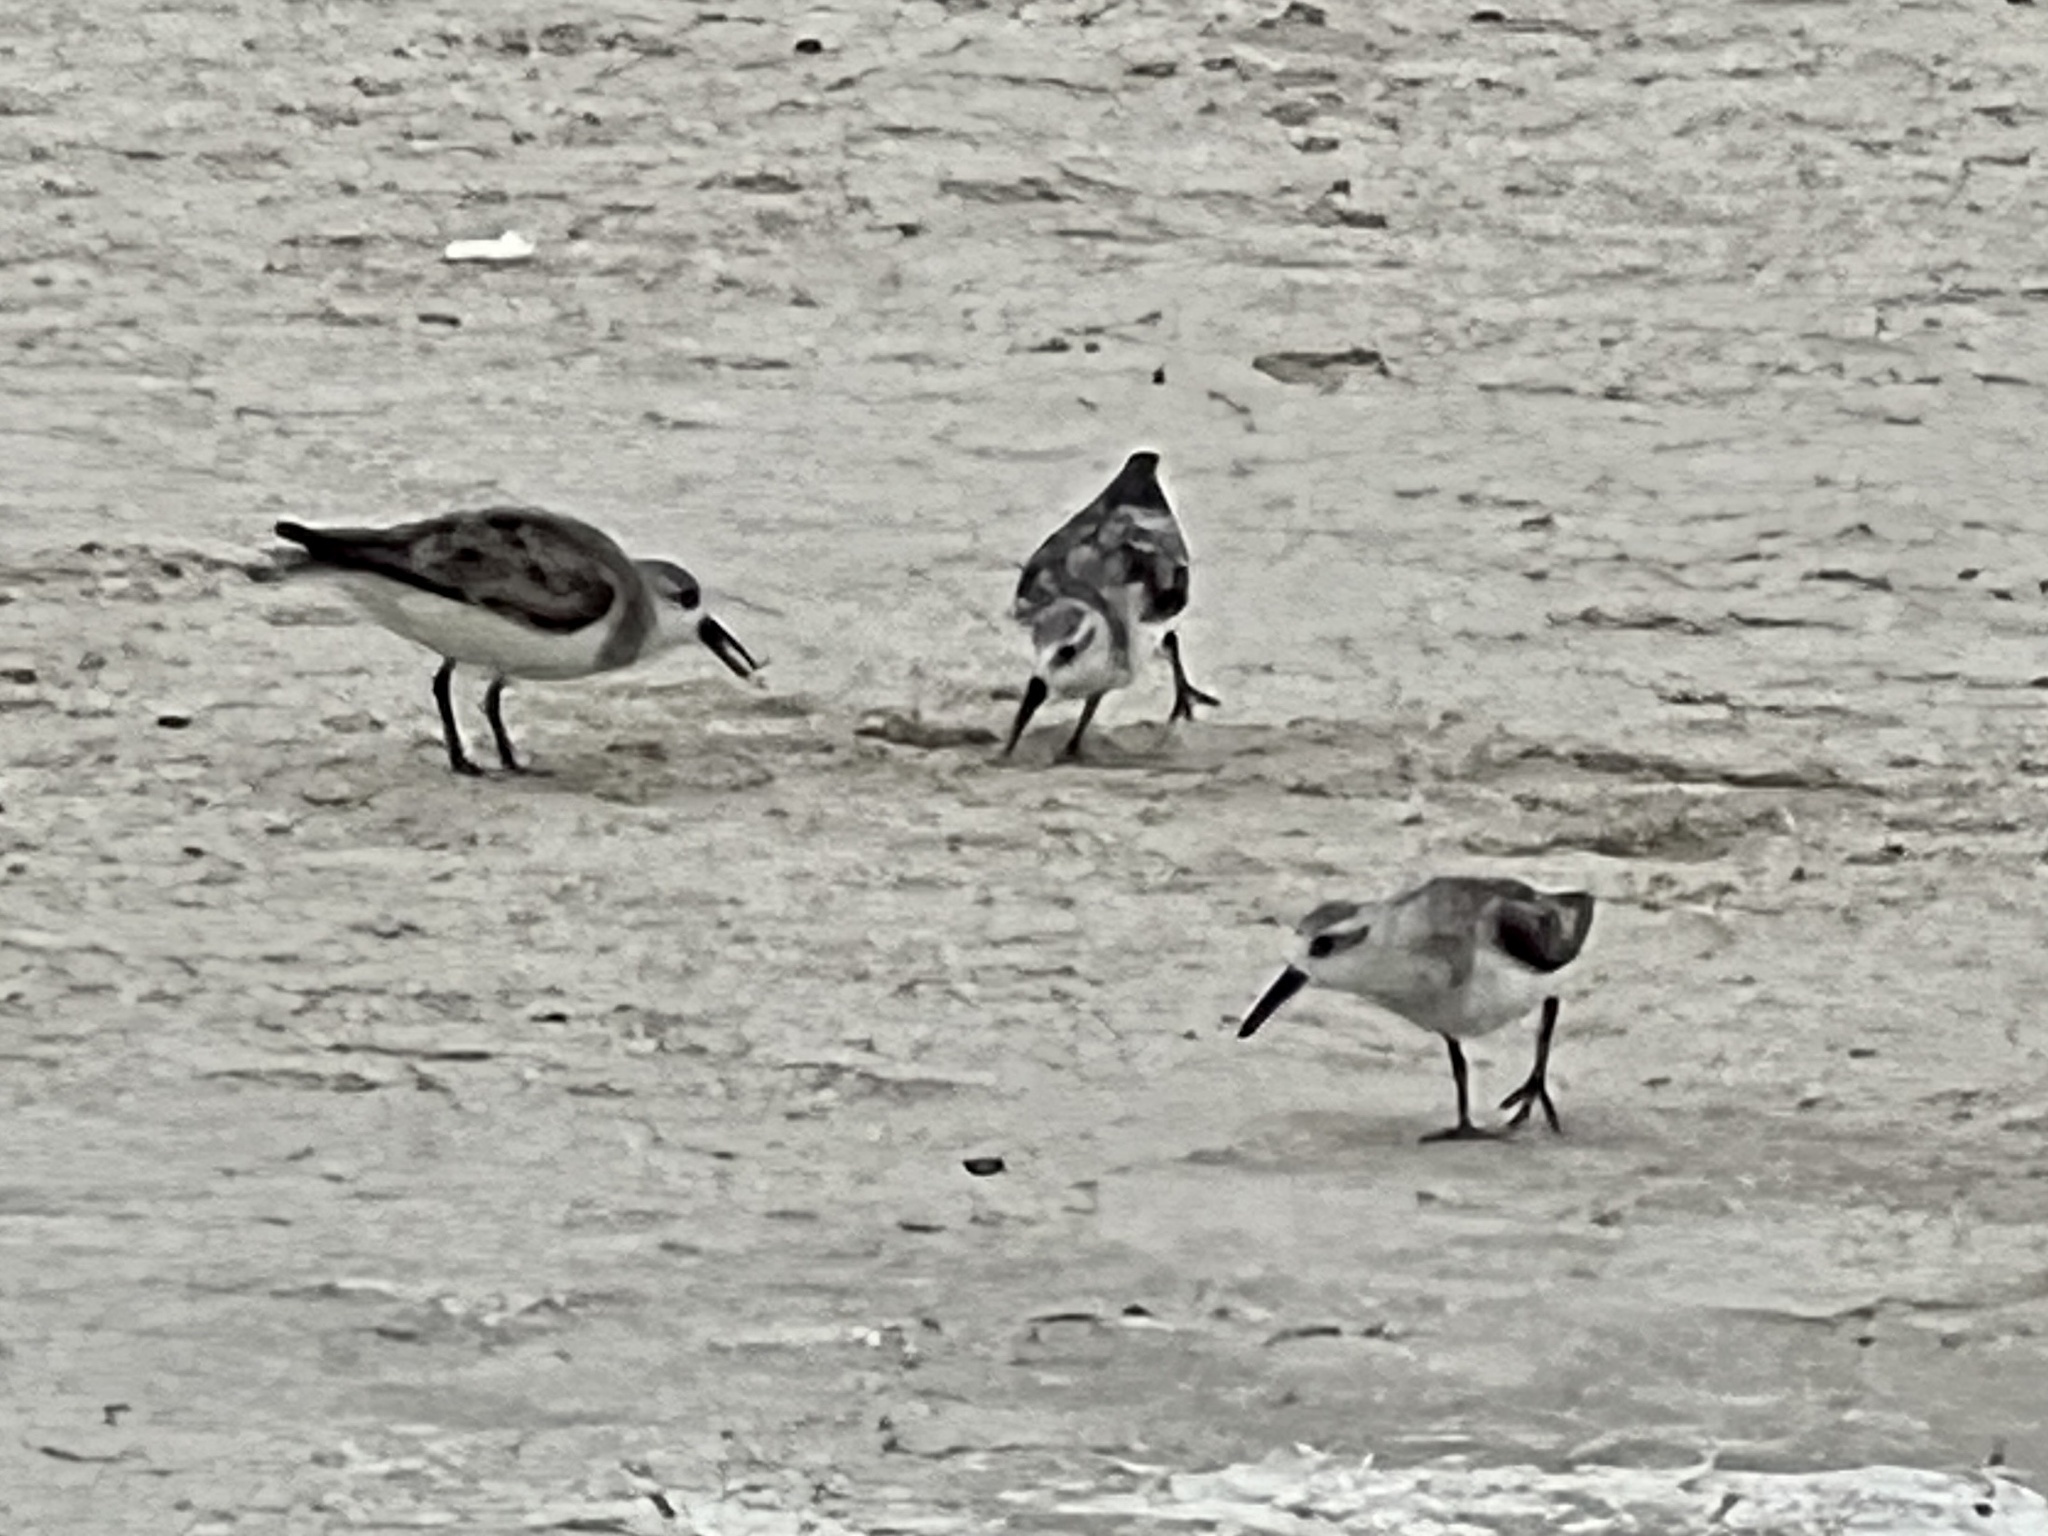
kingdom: Animalia
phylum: Chordata
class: Aves
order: Charadriiformes
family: Scolopacidae
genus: Calidris
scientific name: Calidris alba
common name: Sanderling
